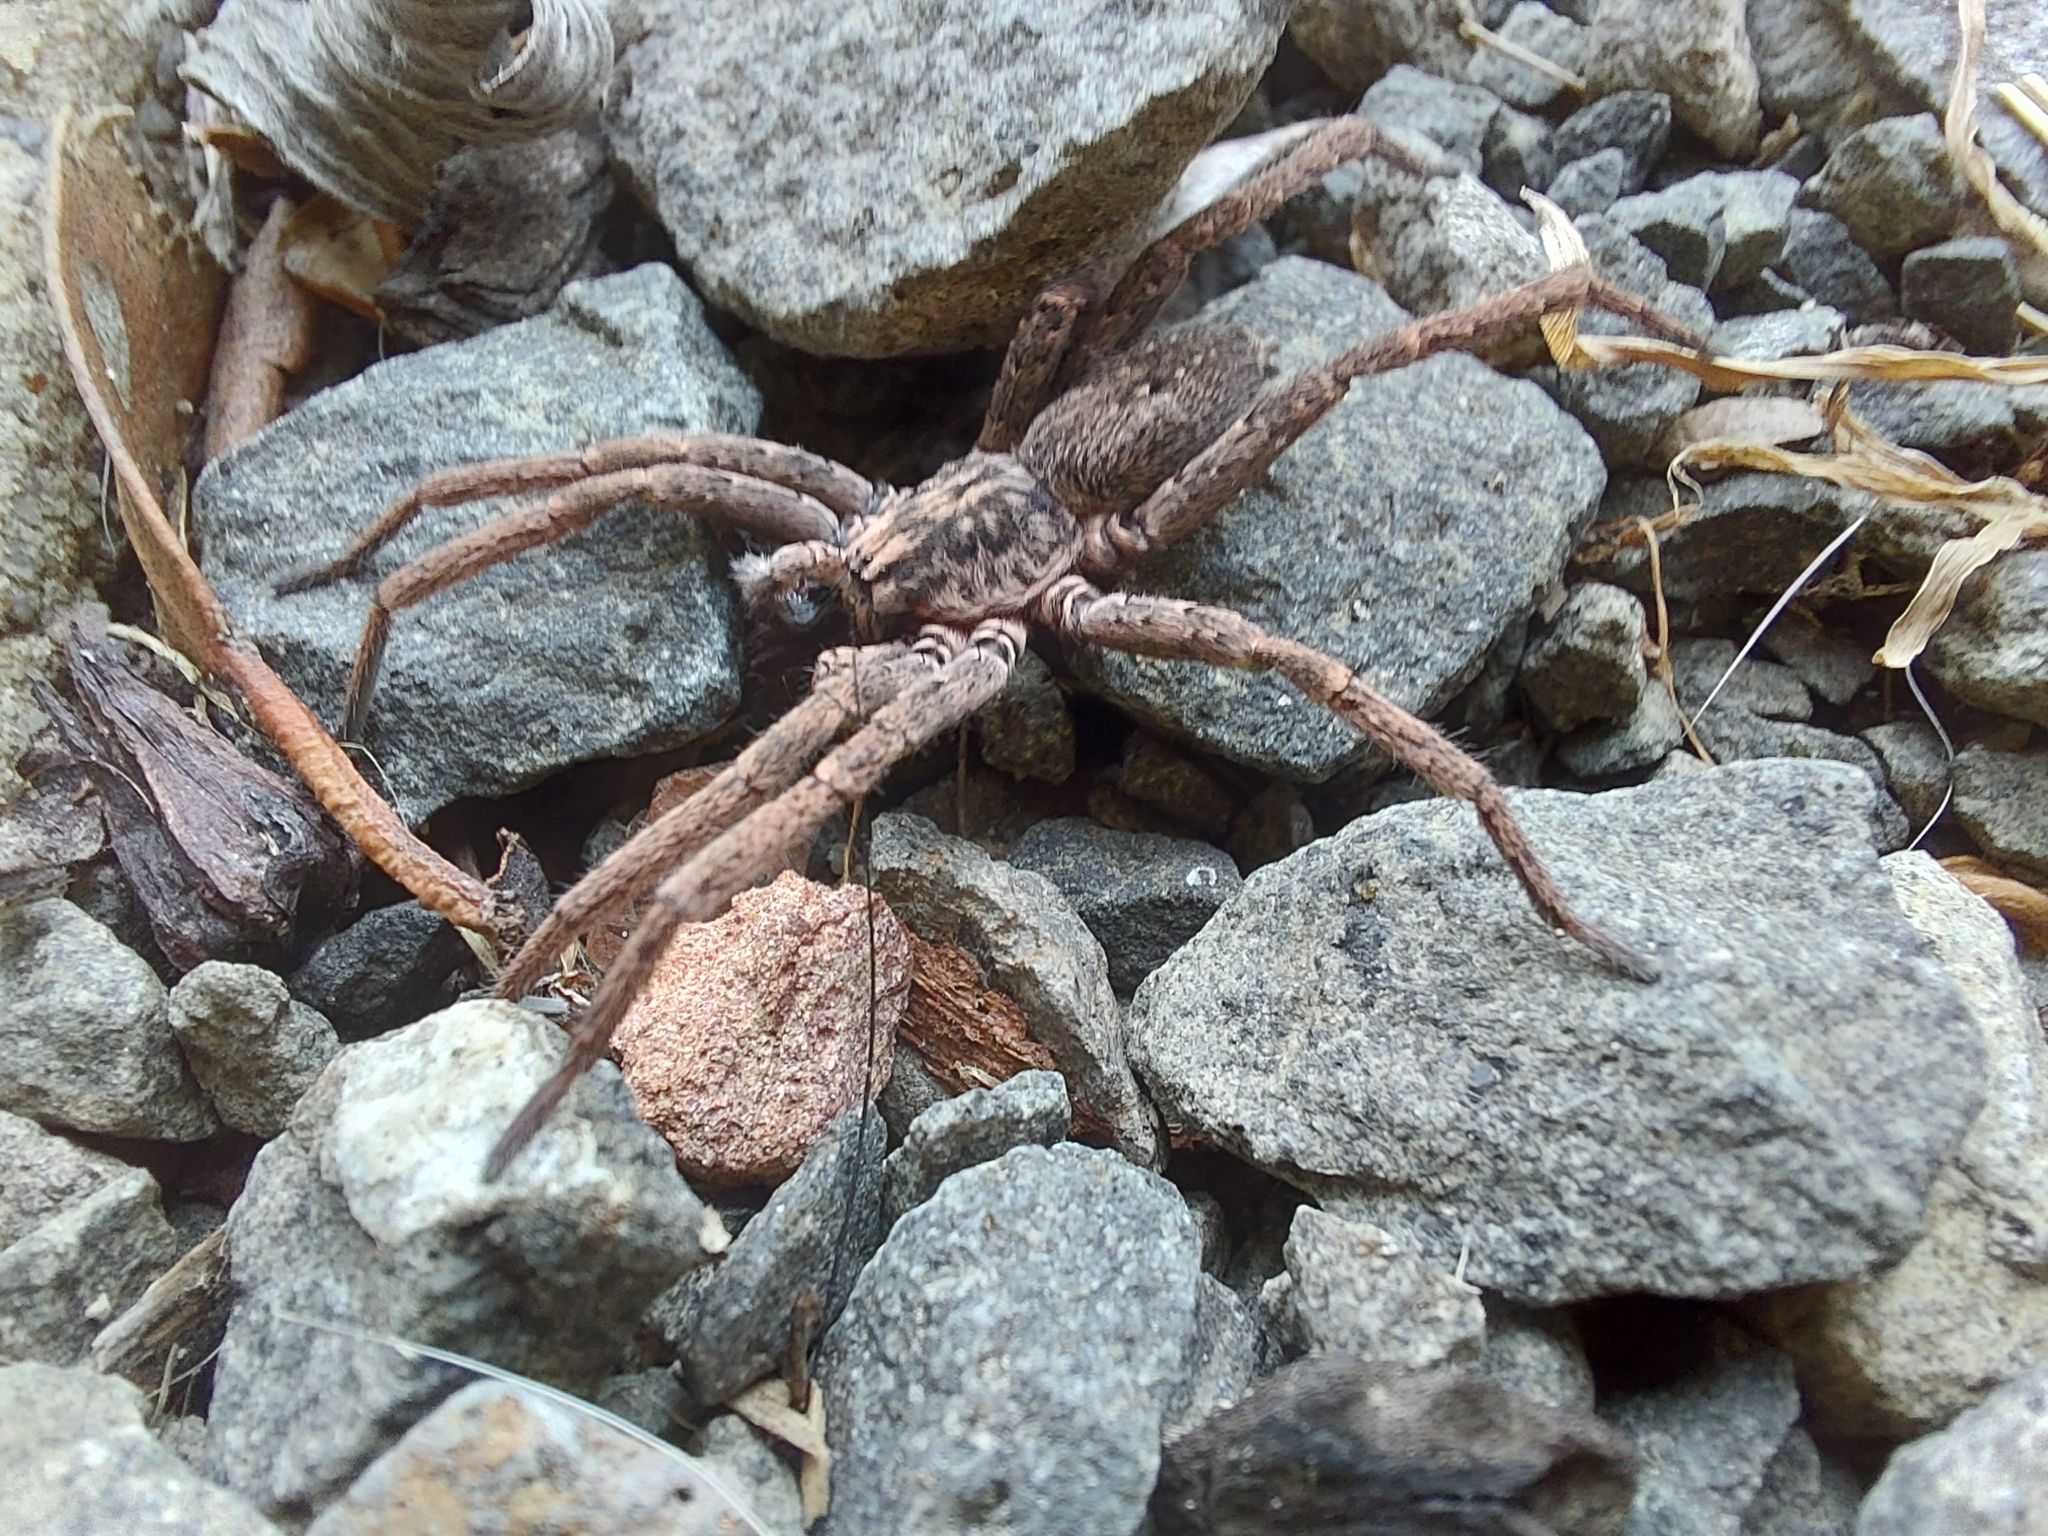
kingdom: Animalia
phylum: Arthropoda
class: Arachnida
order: Araneae
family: Miturgidae
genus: Mituliodon
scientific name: Mituliodon tarantulinus
